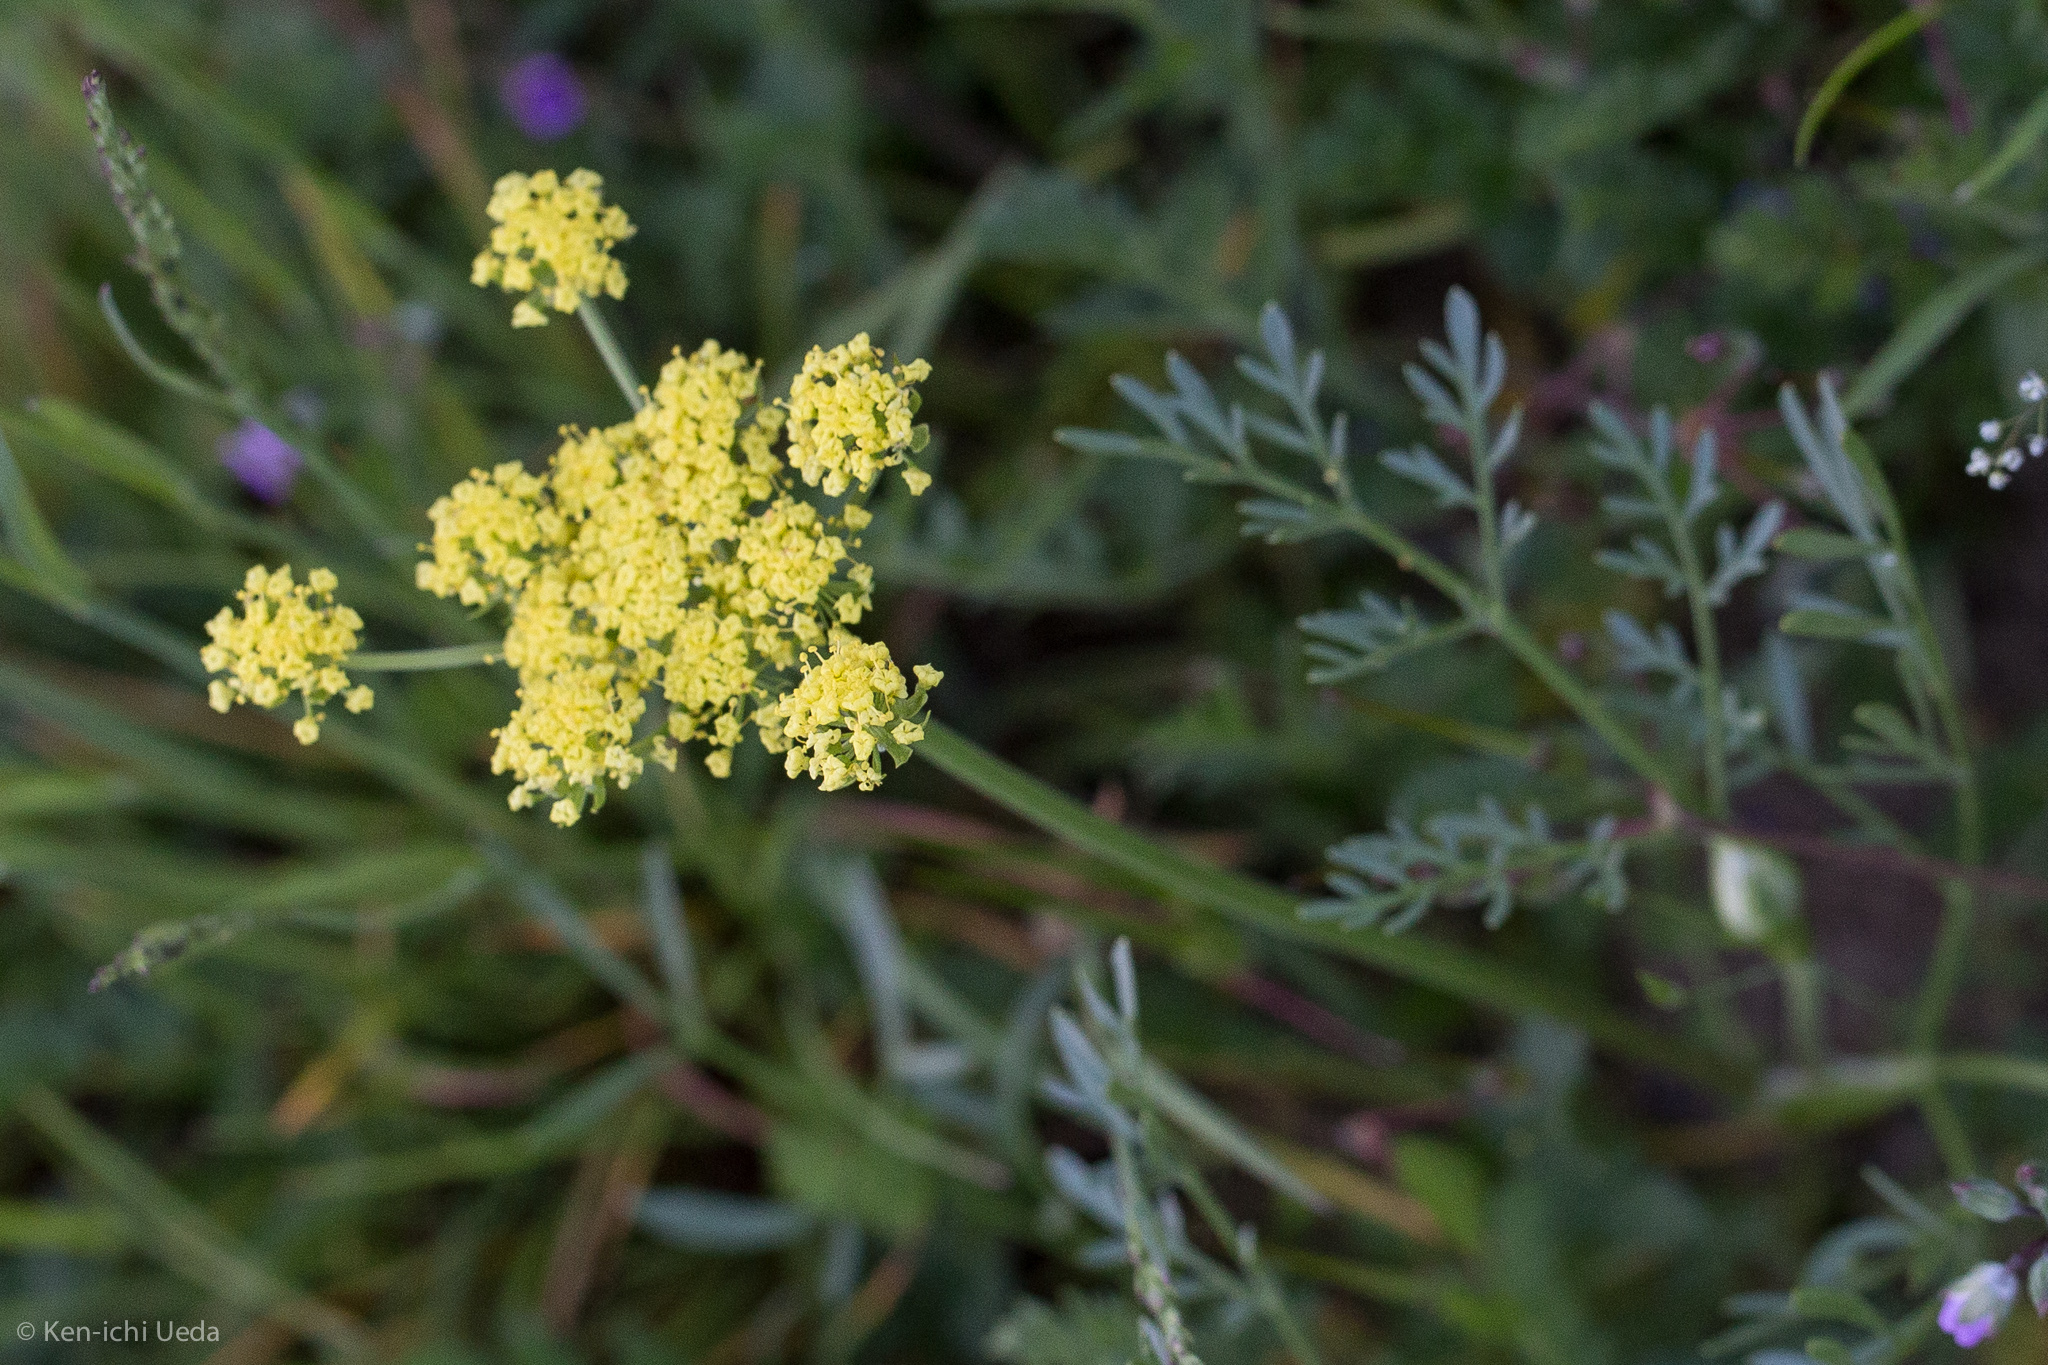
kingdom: Plantae
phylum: Tracheophyta
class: Magnoliopsida
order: Apiales
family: Apiaceae
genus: Lomatium
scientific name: Lomatium utriculatum
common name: Fine-leaf desert-parsley
